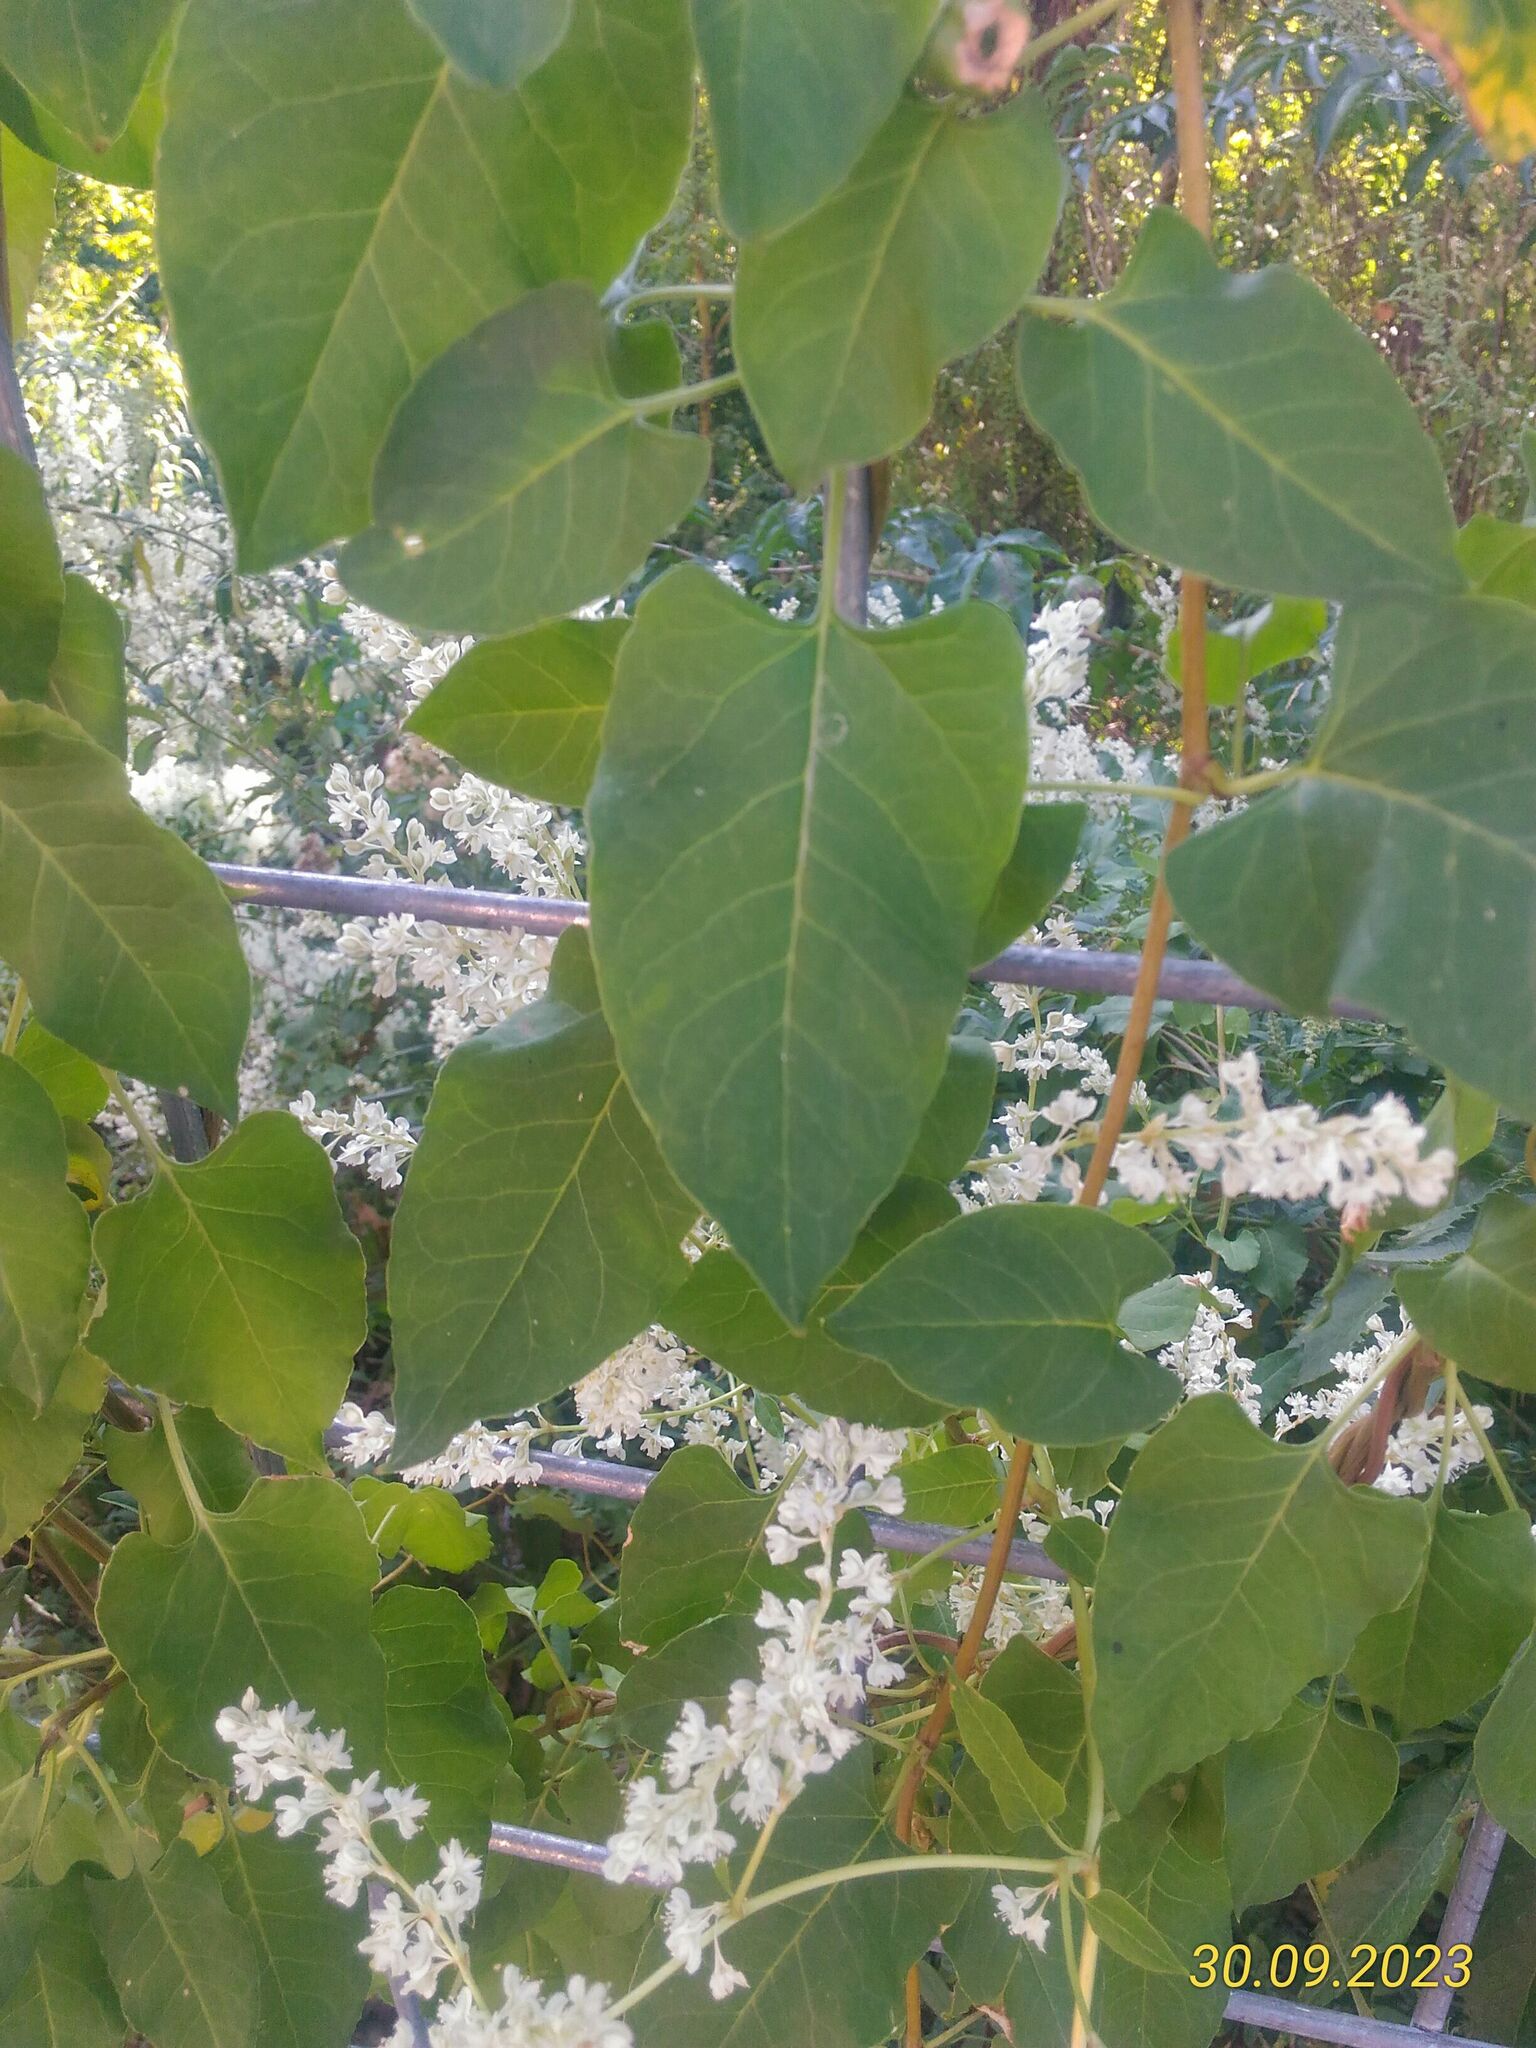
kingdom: Plantae
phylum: Tracheophyta
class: Magnoliopsida
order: Caryophyllales
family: Polygonaceae
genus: Fallopia
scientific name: Fallopia baldschuanica
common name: Russian-vine
